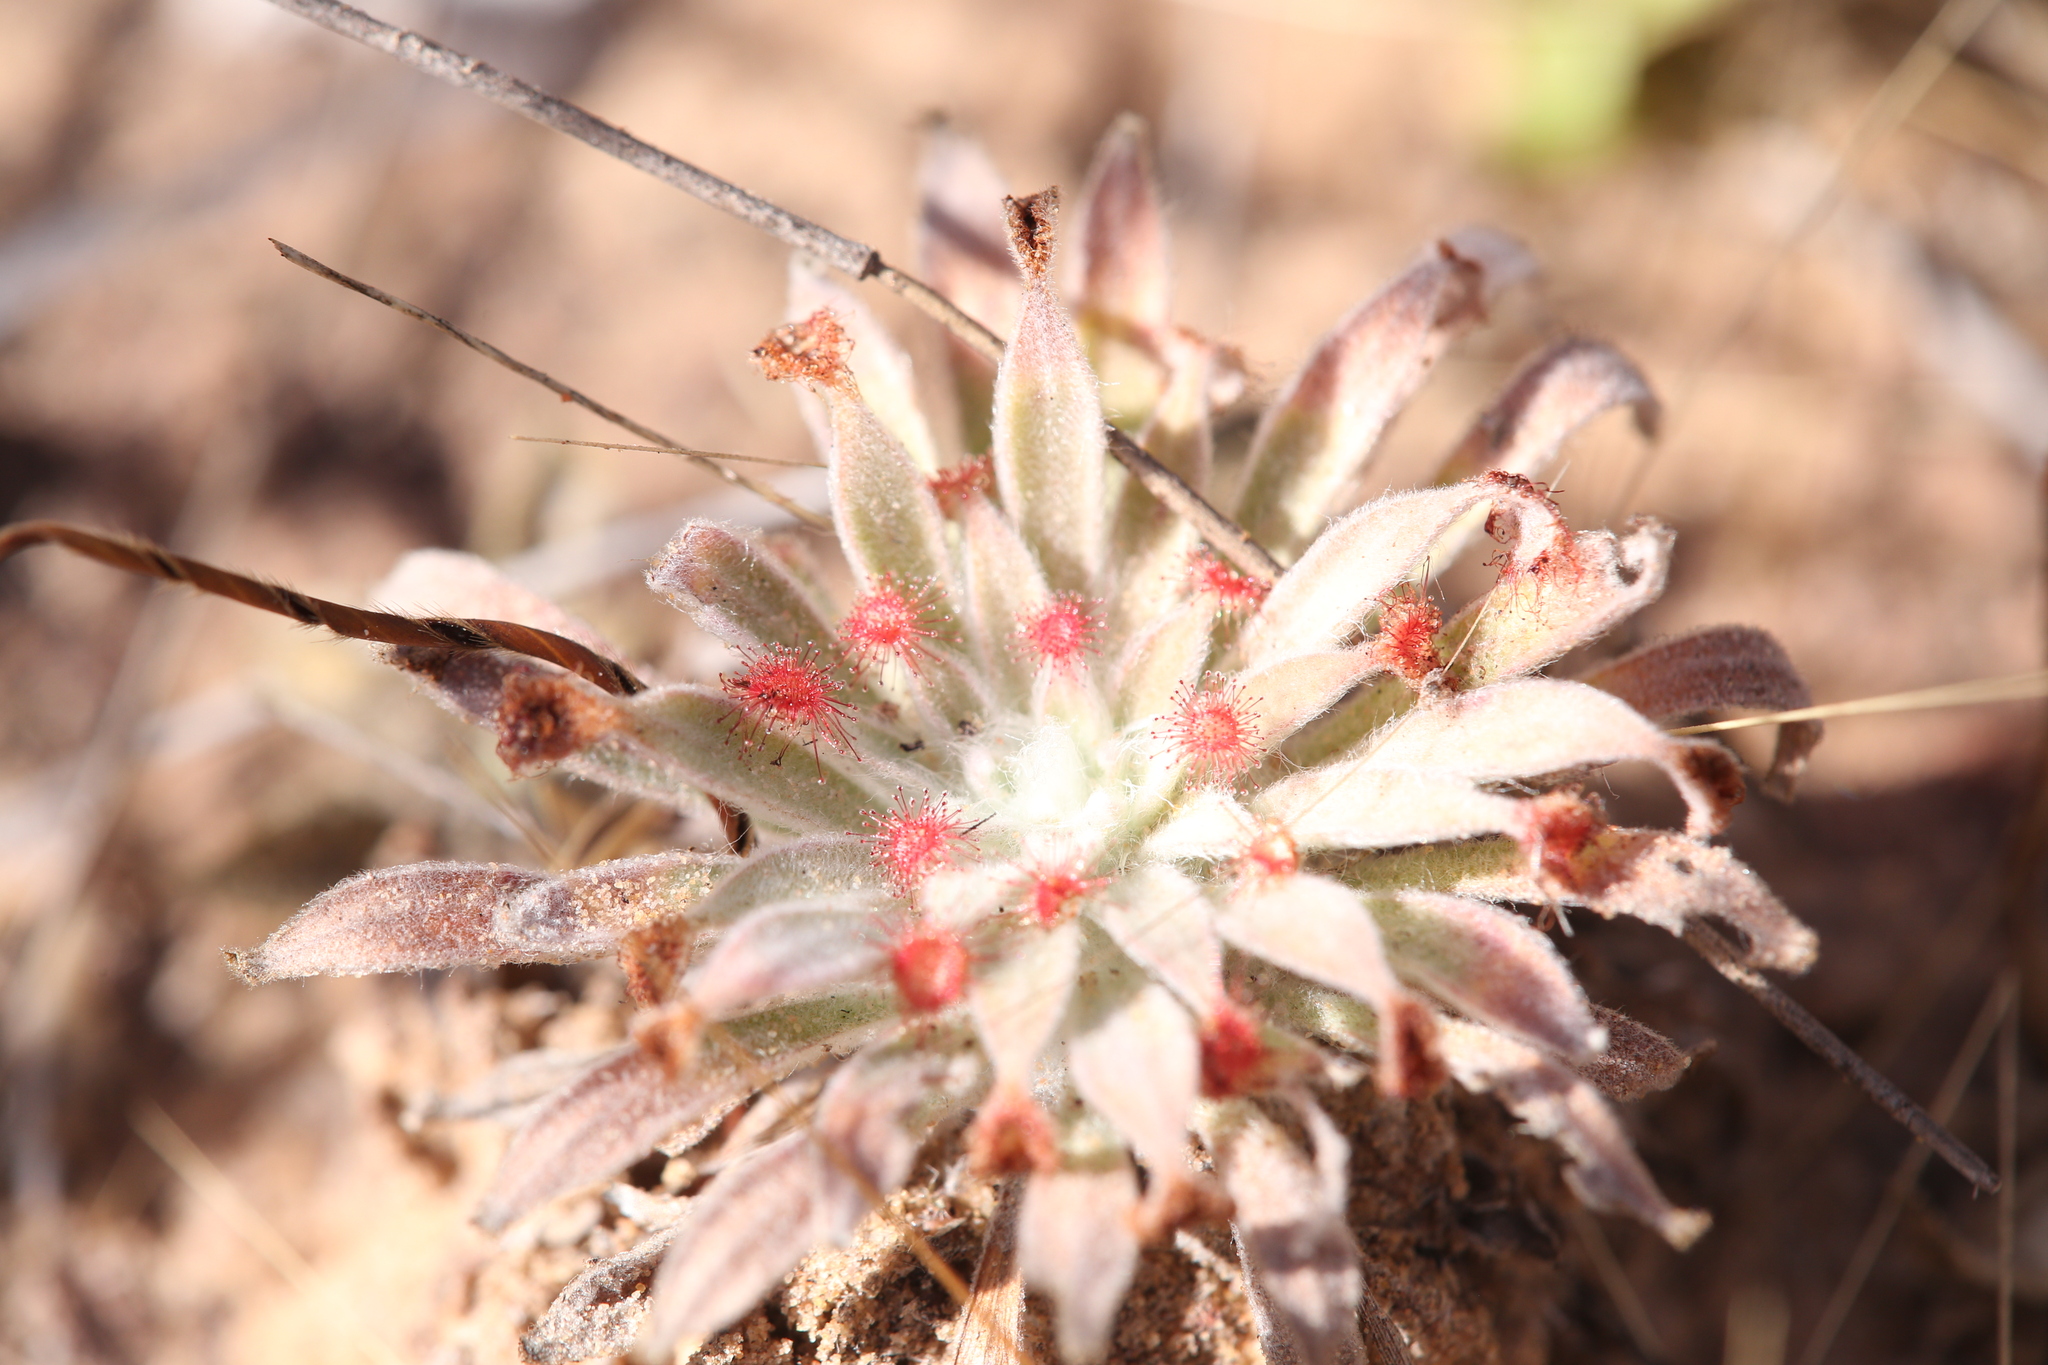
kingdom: Plantae
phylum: Tracheophyta
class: Magnoliopsida
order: Caryophyllales
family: Droseraceae
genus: Drosera
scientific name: Drosera ordensis
